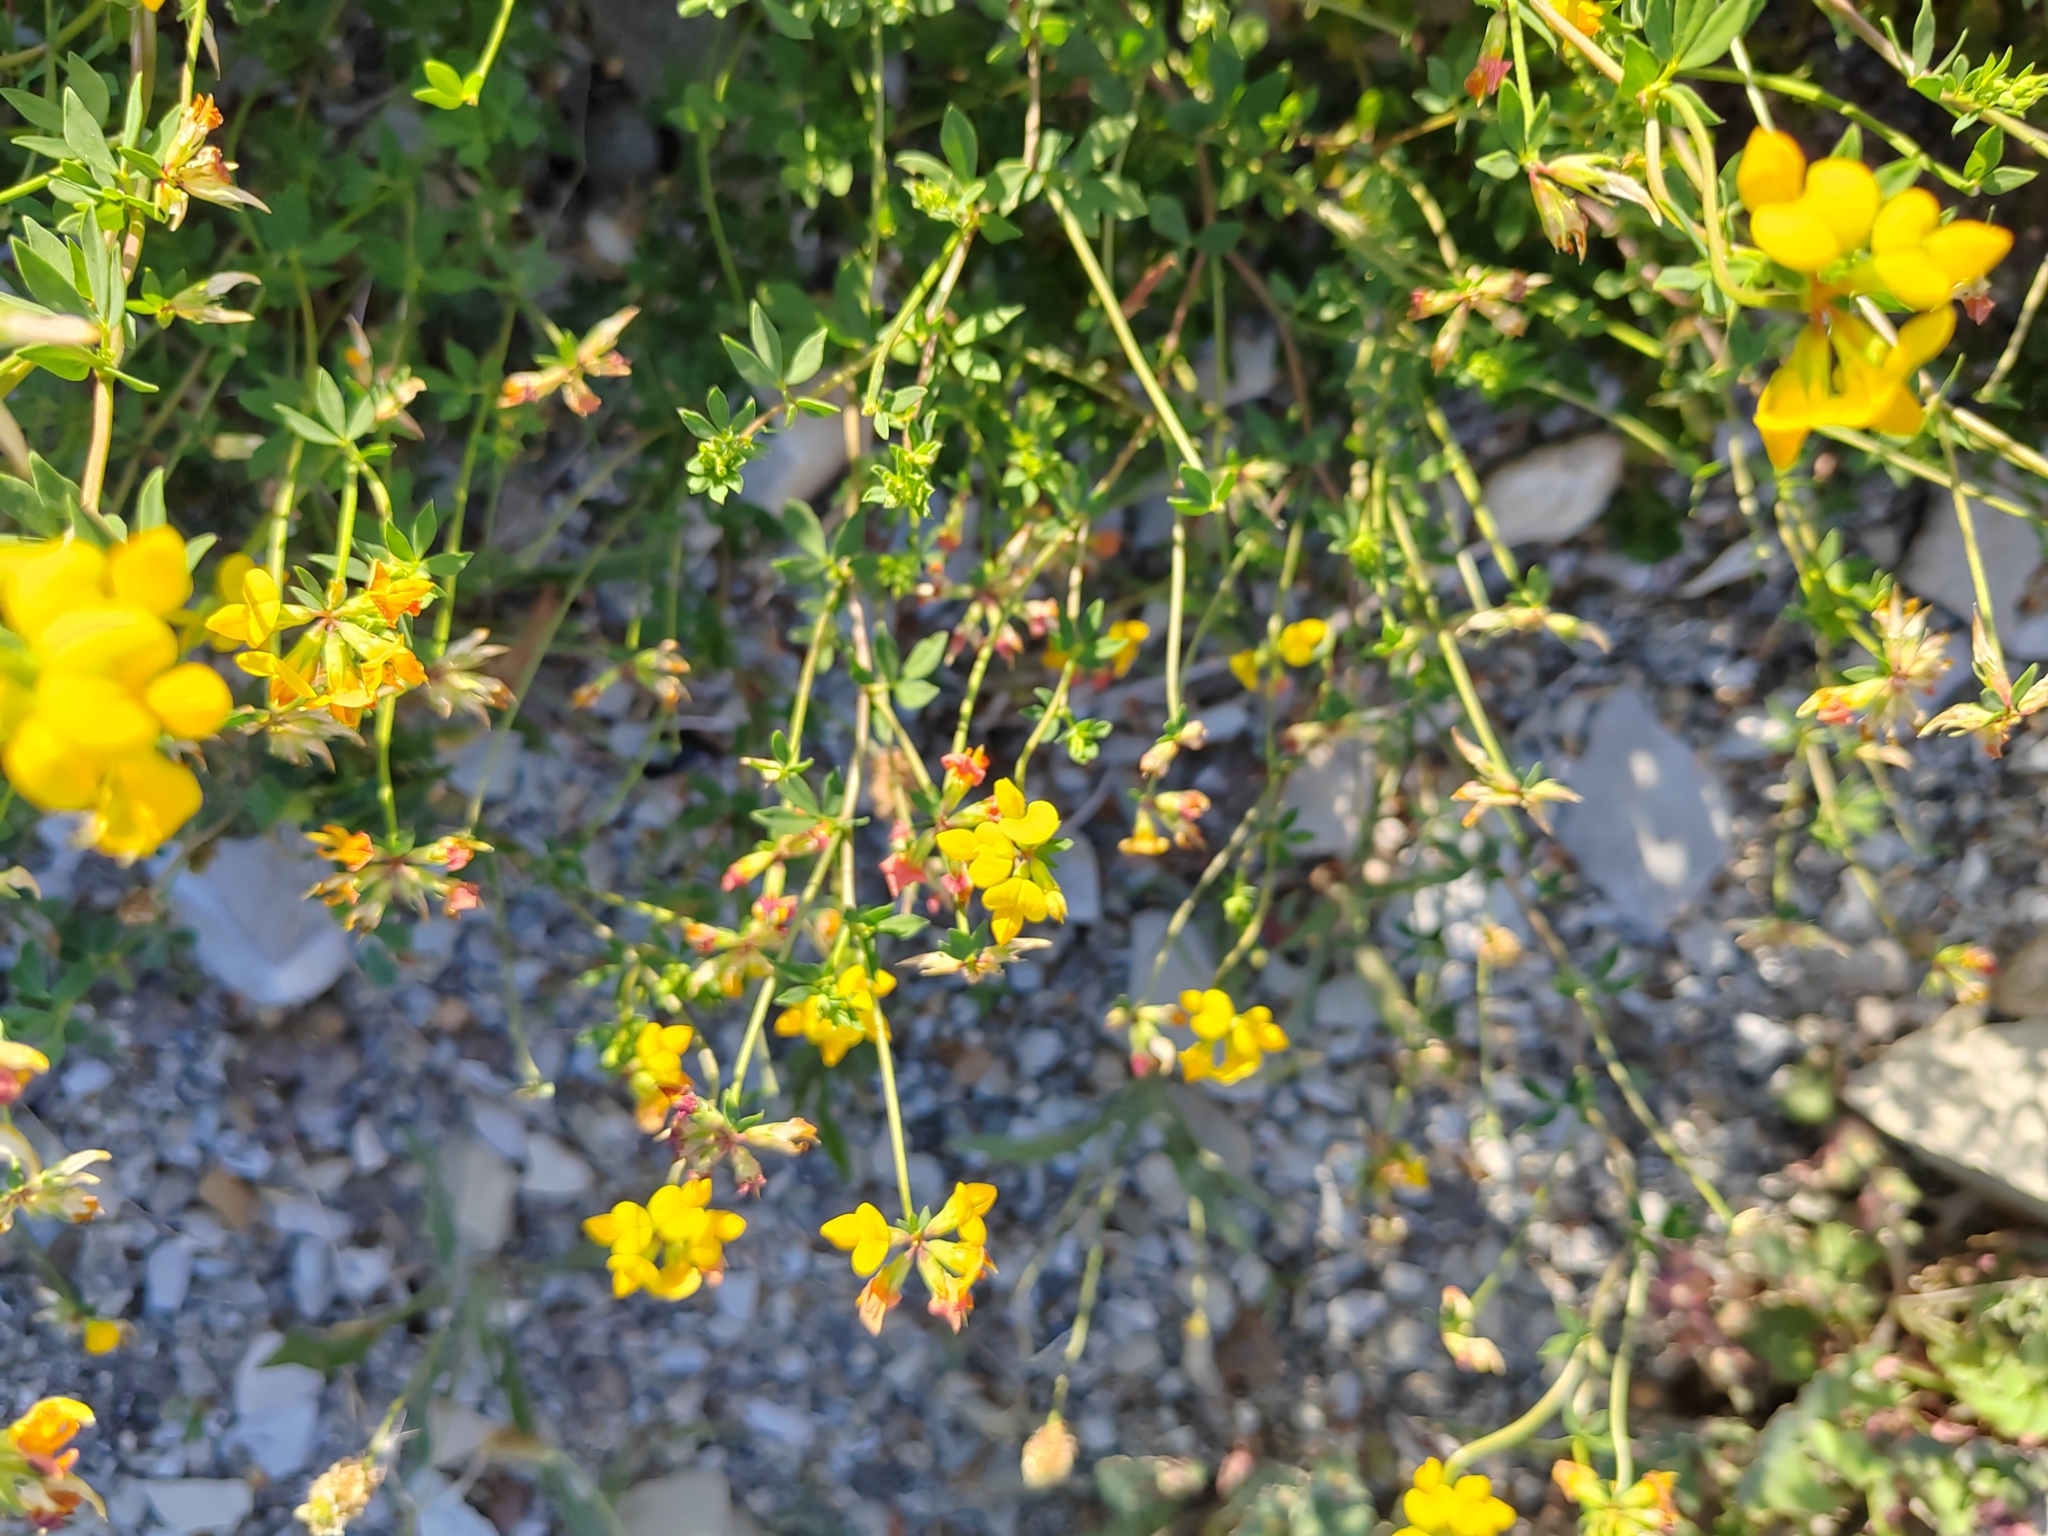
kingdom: Plantae
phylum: Tracheophyta
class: Magnoliopsida
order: Fabales
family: Fabaceae
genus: Lotus
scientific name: Lotus corniculatus
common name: Common bird's-foot-trefoil
